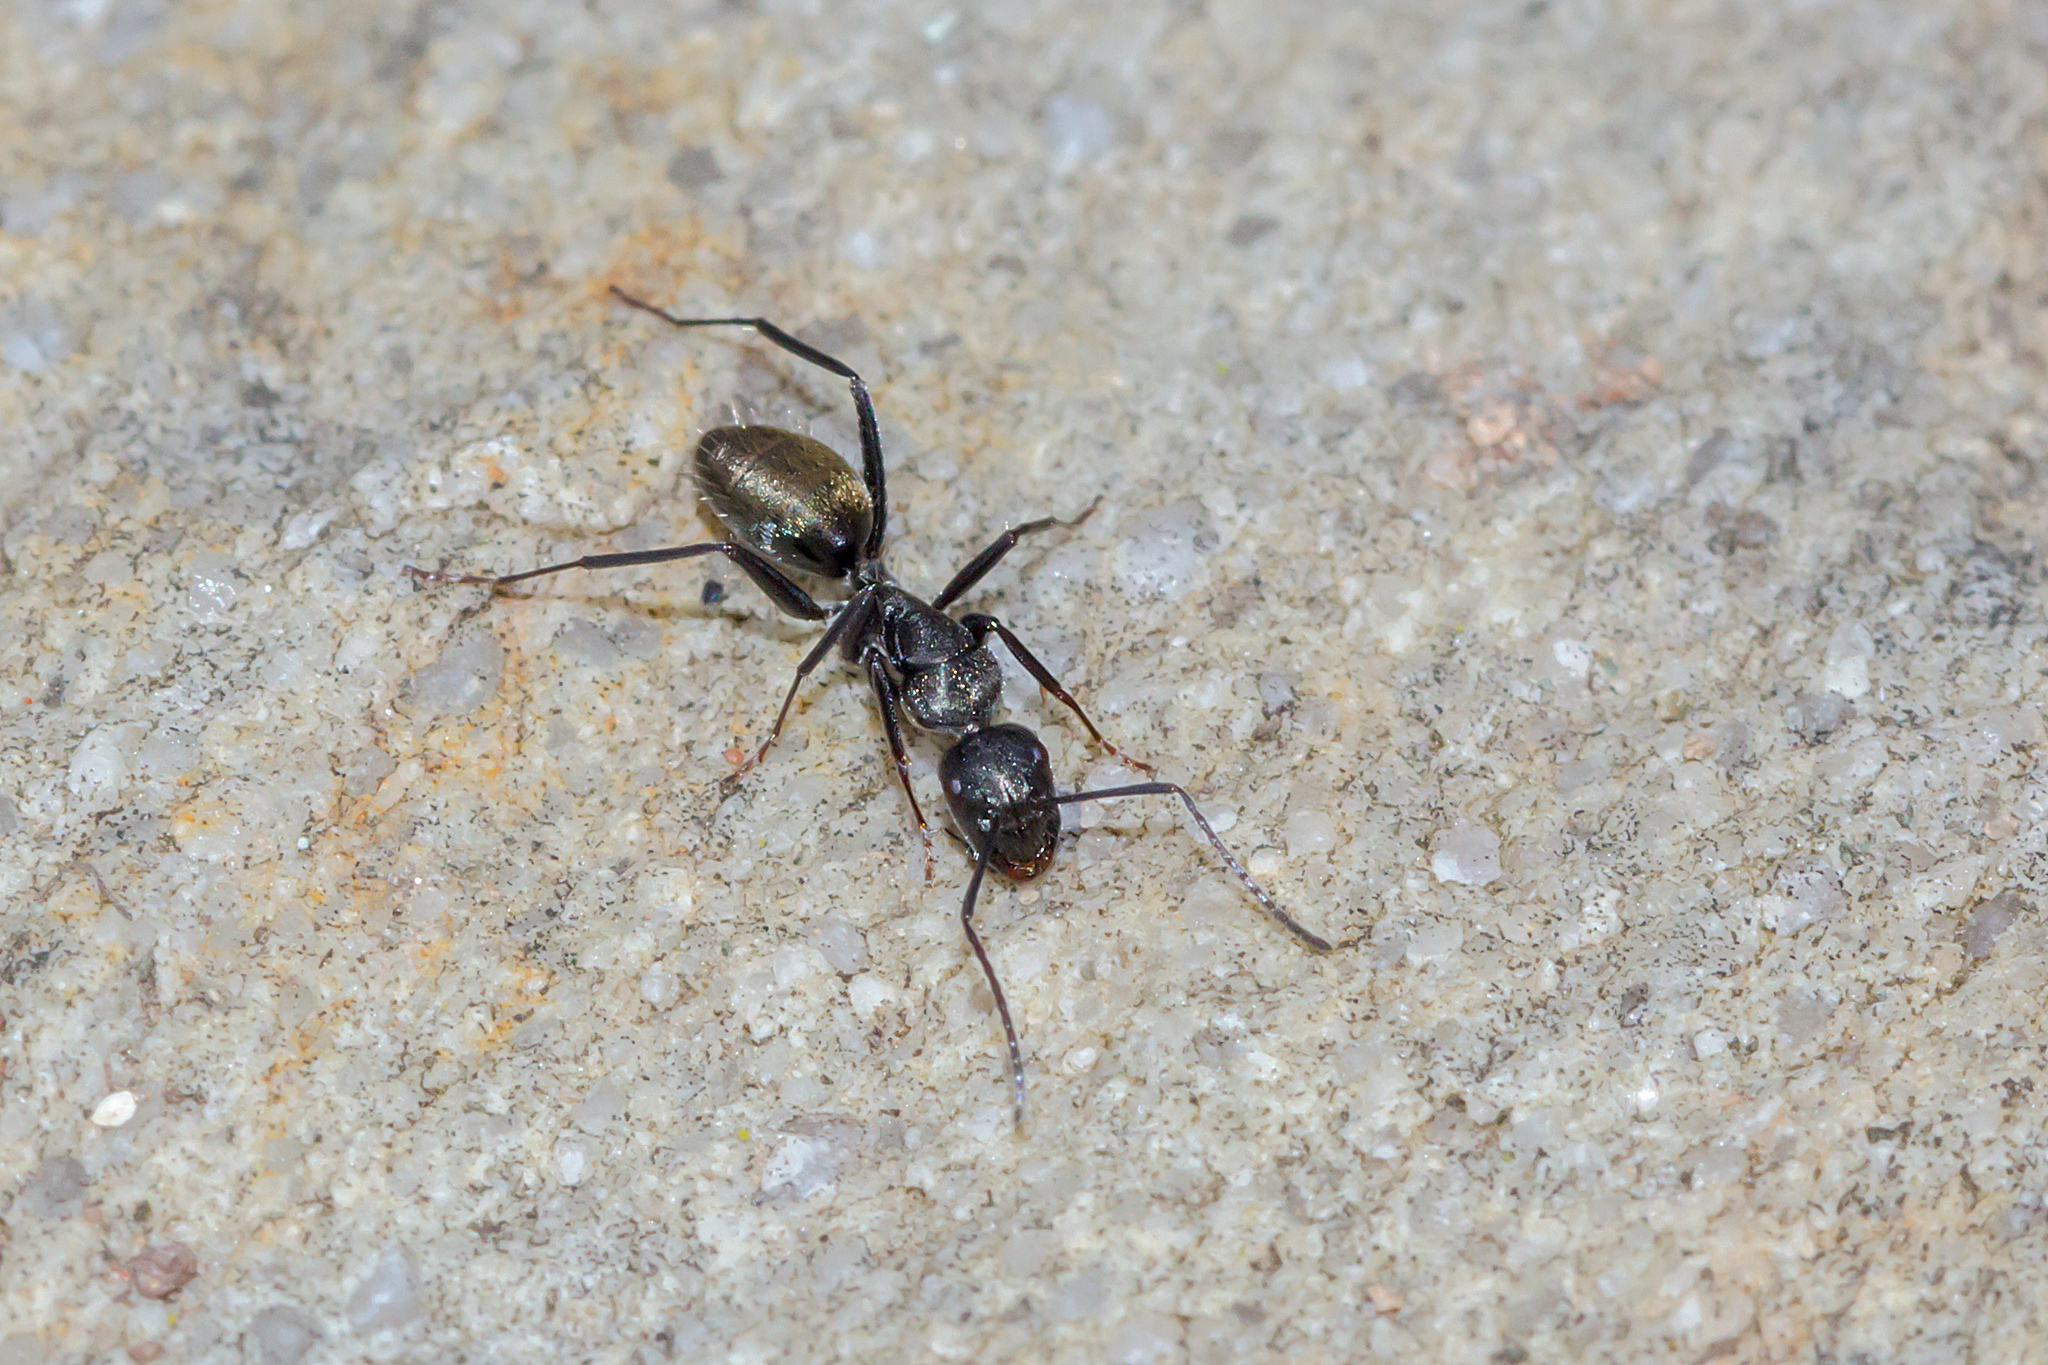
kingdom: Animalia
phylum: Arthropoda
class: Insecta
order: Hymenoptera
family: Formicidae
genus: Camponotus
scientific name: Camponotus aeneopilosus
